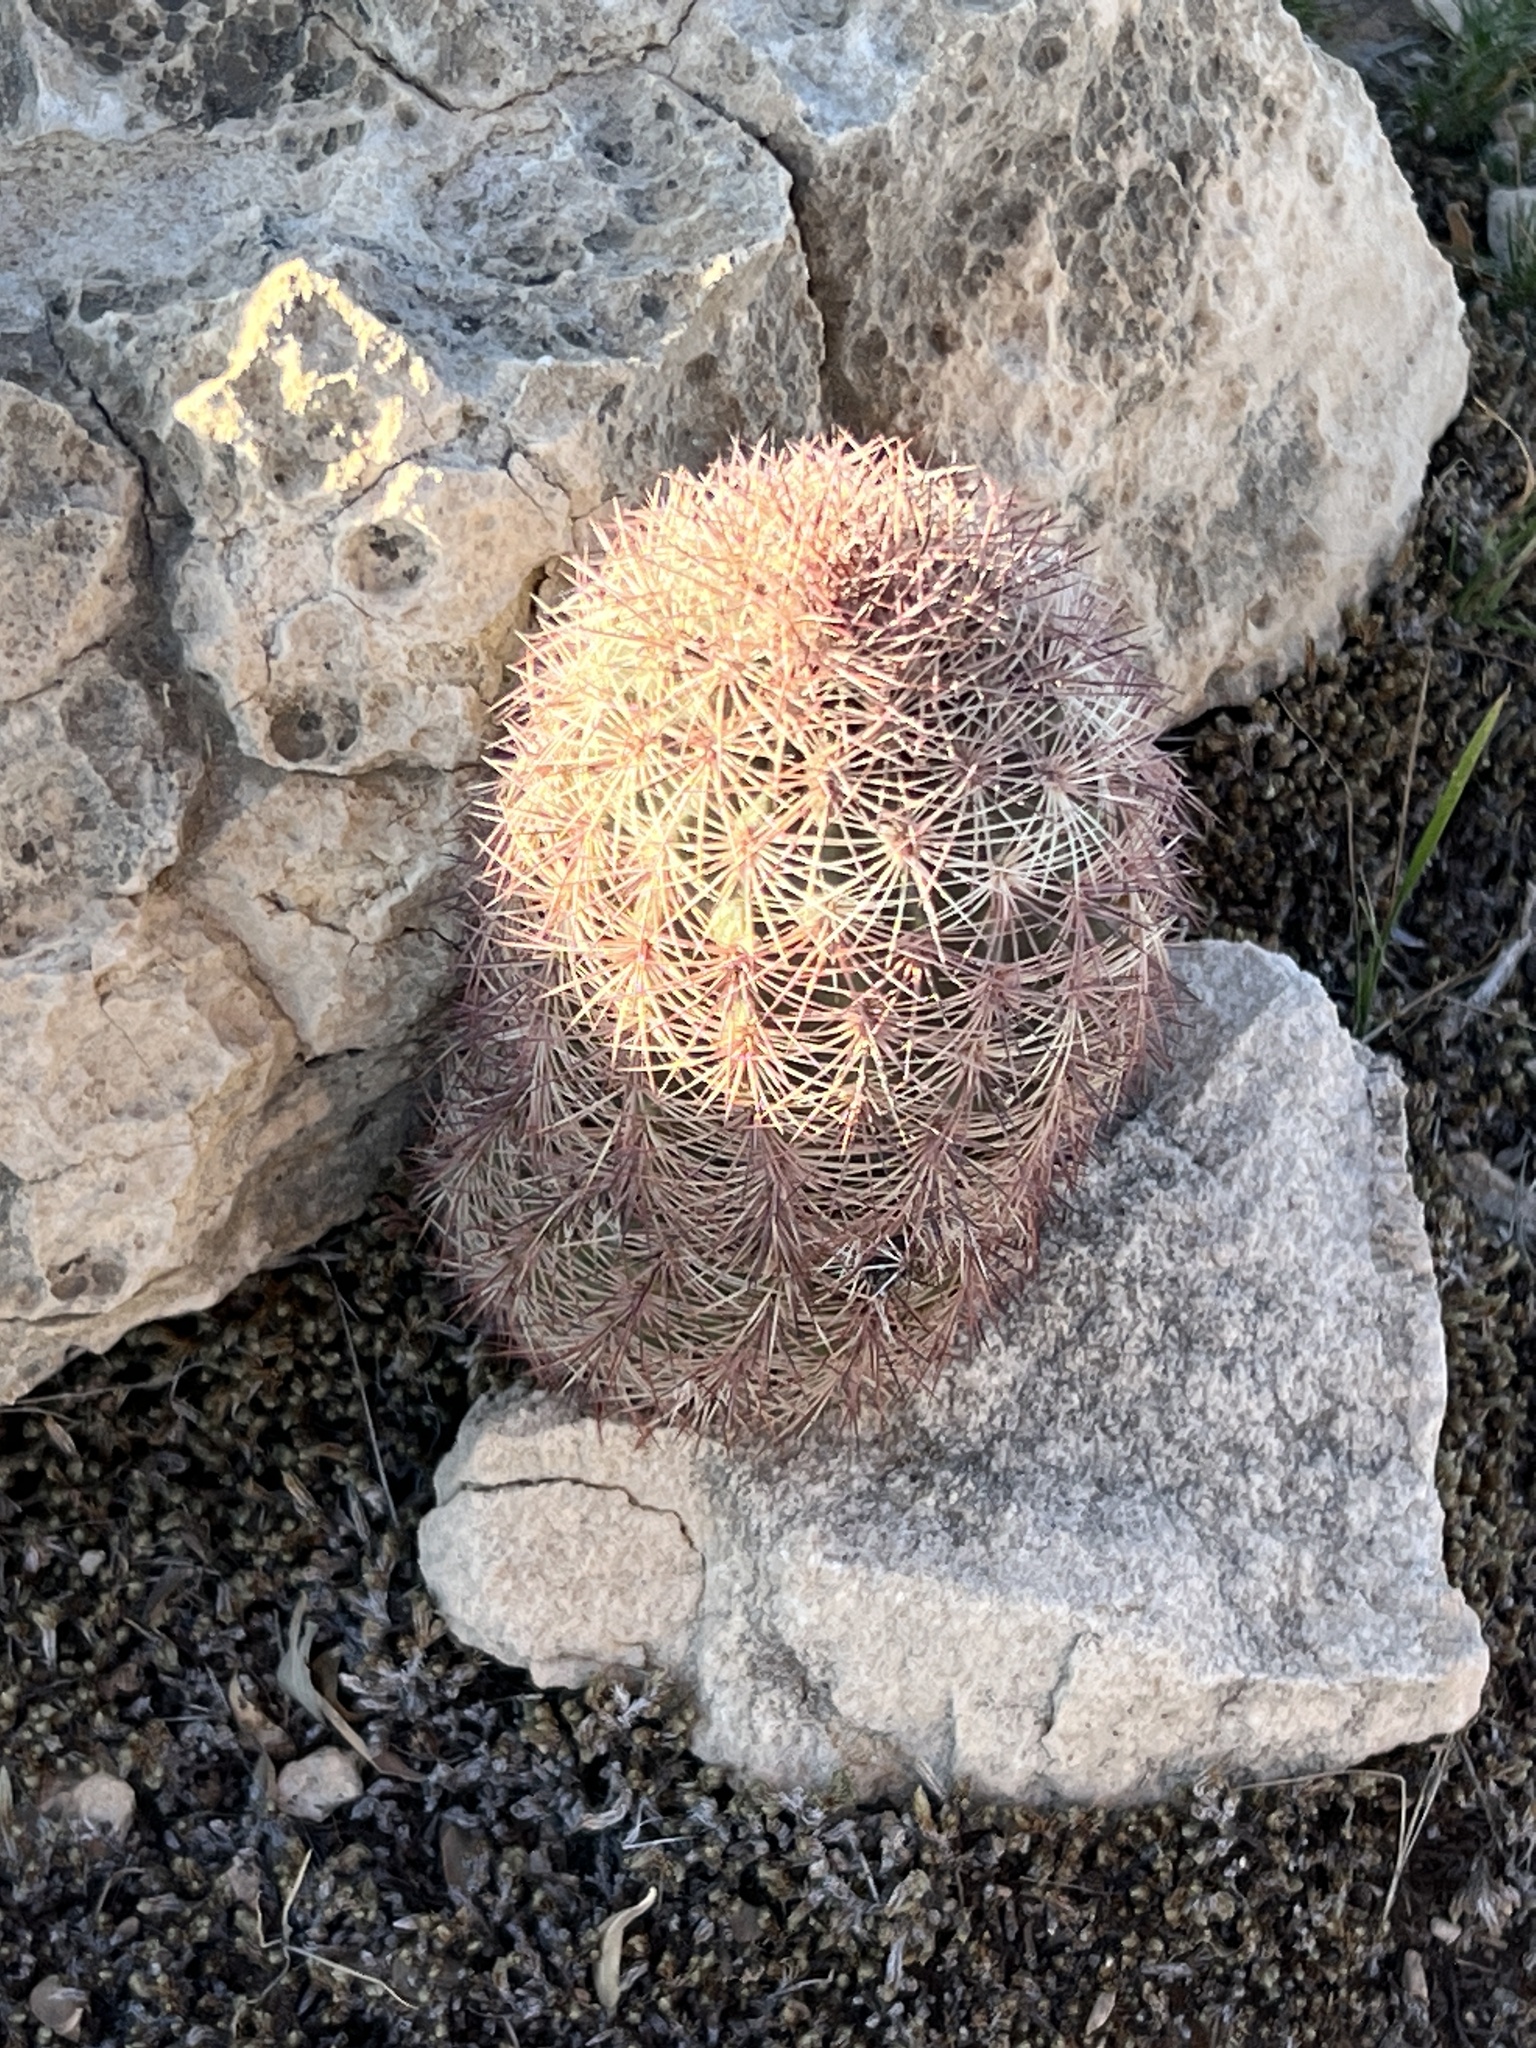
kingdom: Plantae
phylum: Tracheophyta
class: Magnoliopsida
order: Caryophyllales
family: Cactaceae
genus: Echinocereus
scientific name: Echinocereus dasyacanthus
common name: Spiny hedgehog cactus
